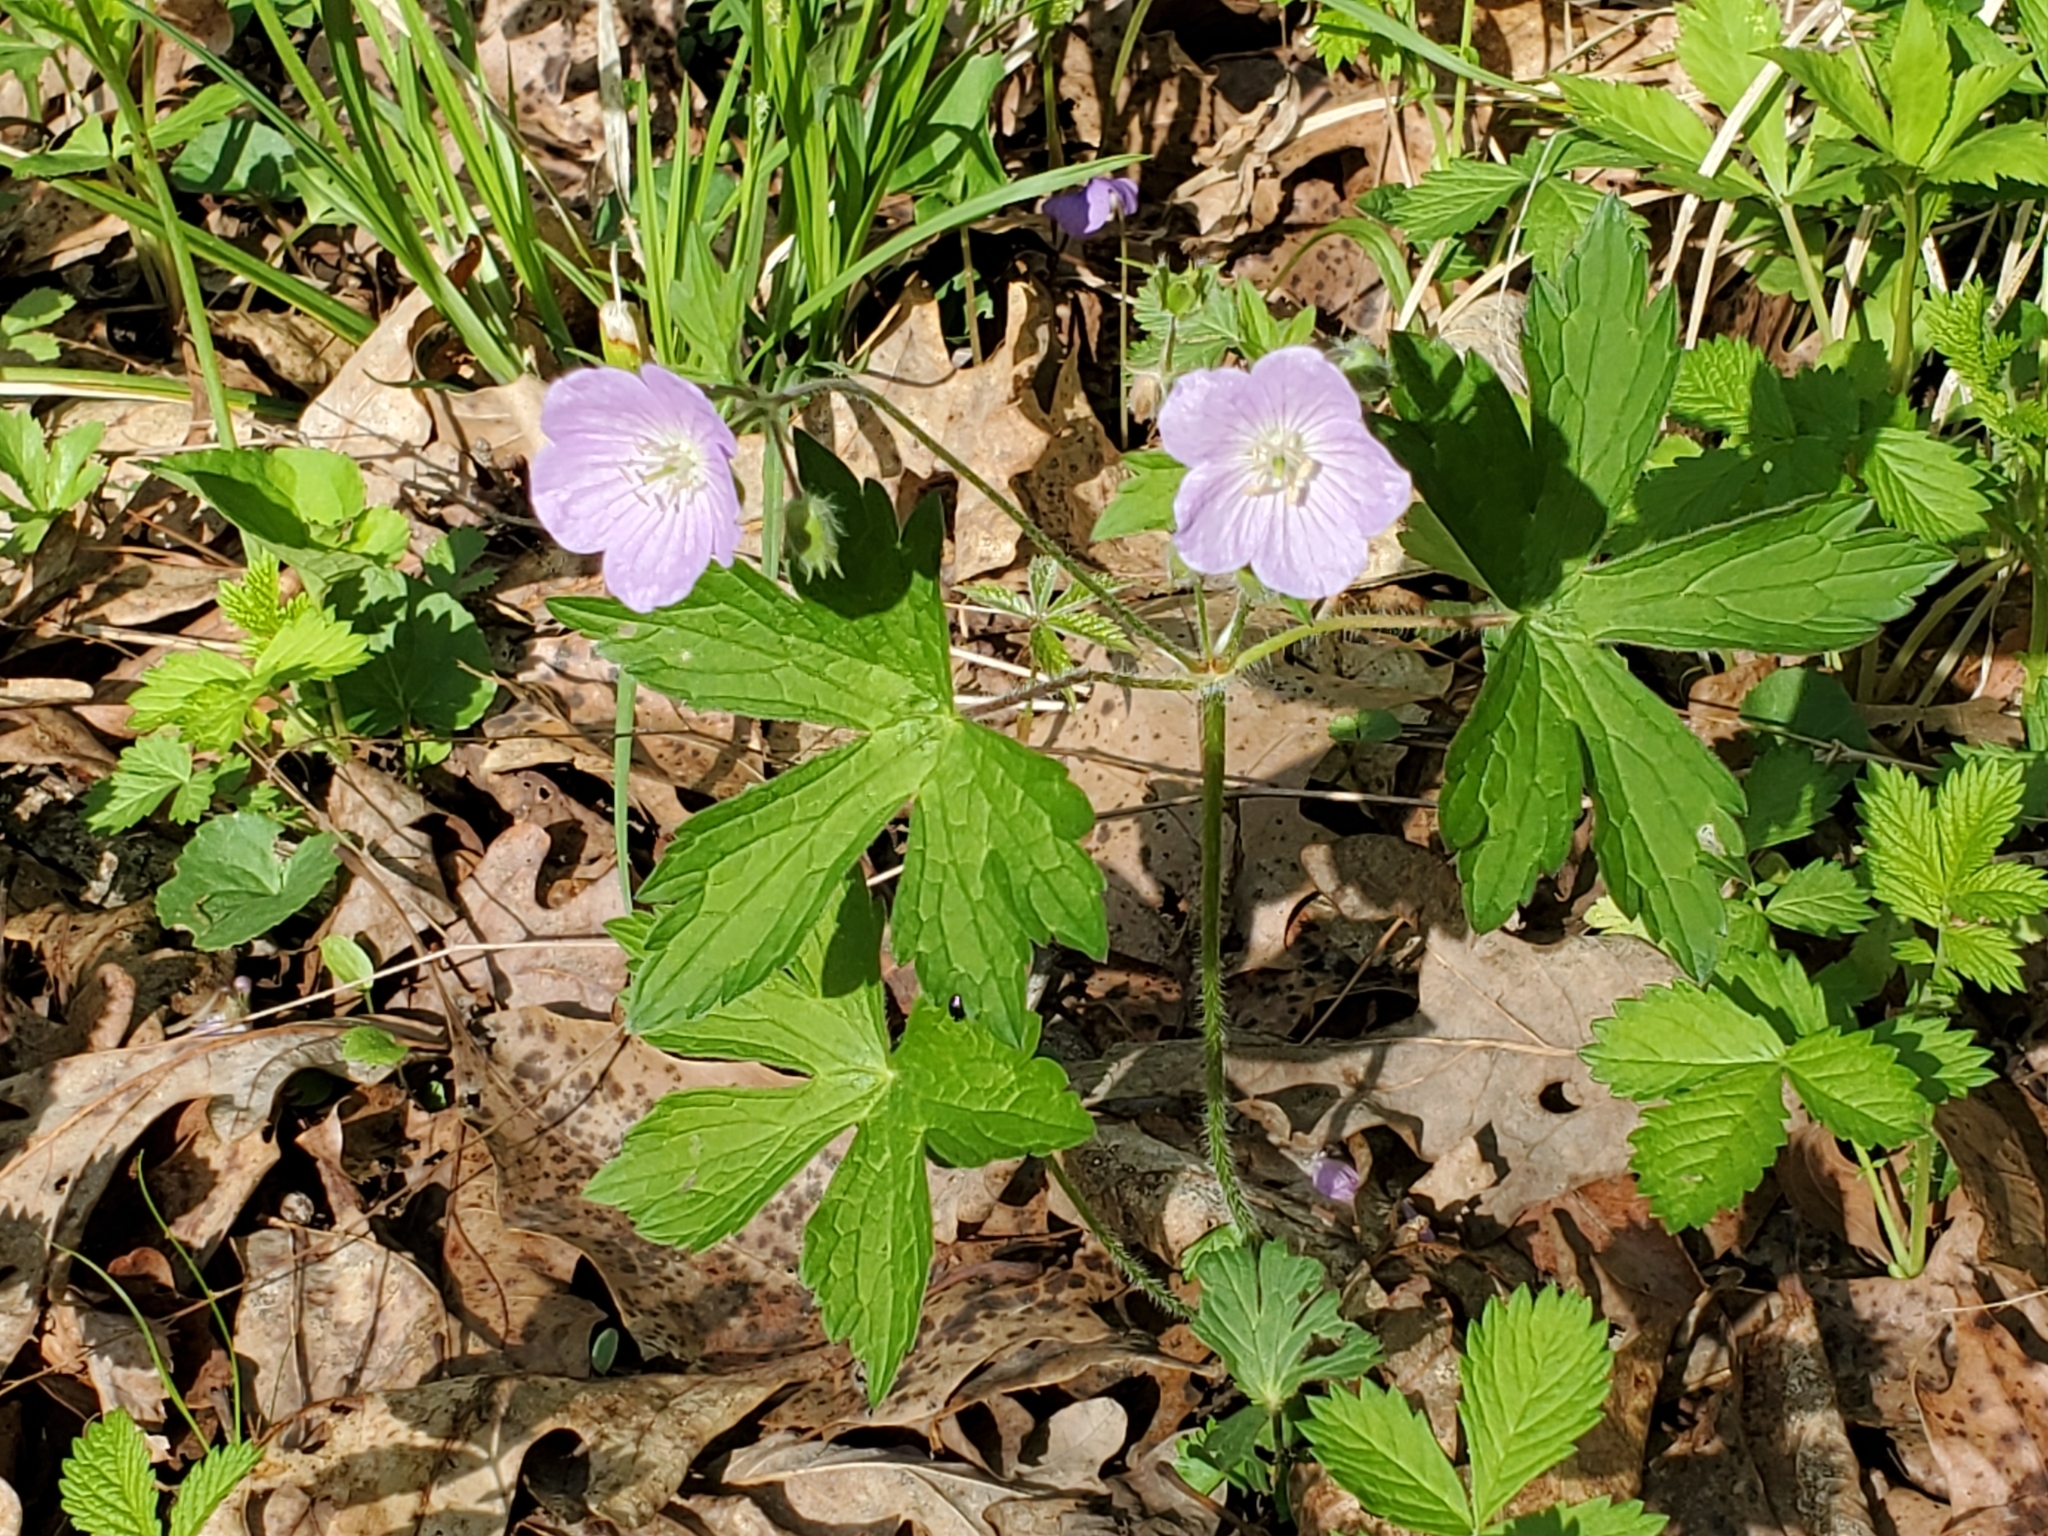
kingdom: Plantae
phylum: Tracheophyta
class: Magnoliopsida
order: Geraniales
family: Geraniaceae
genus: Geranium
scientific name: Geranium maculatum
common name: Spotted geranium
